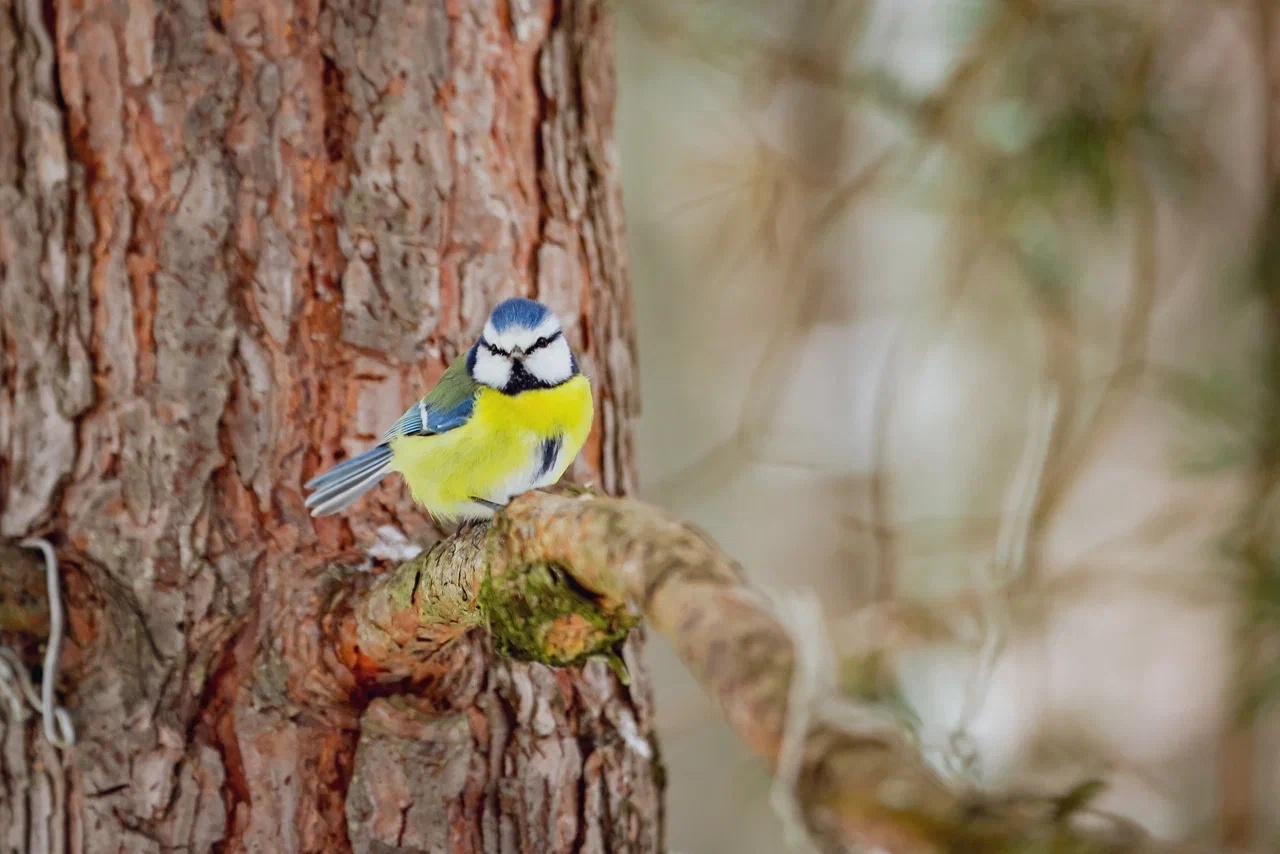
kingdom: Animalia
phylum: Chordata
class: Aves
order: Passeriformes
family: Paridae
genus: Cyanistes
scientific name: Cyanistes caeruleus
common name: Eurasian blue tit
